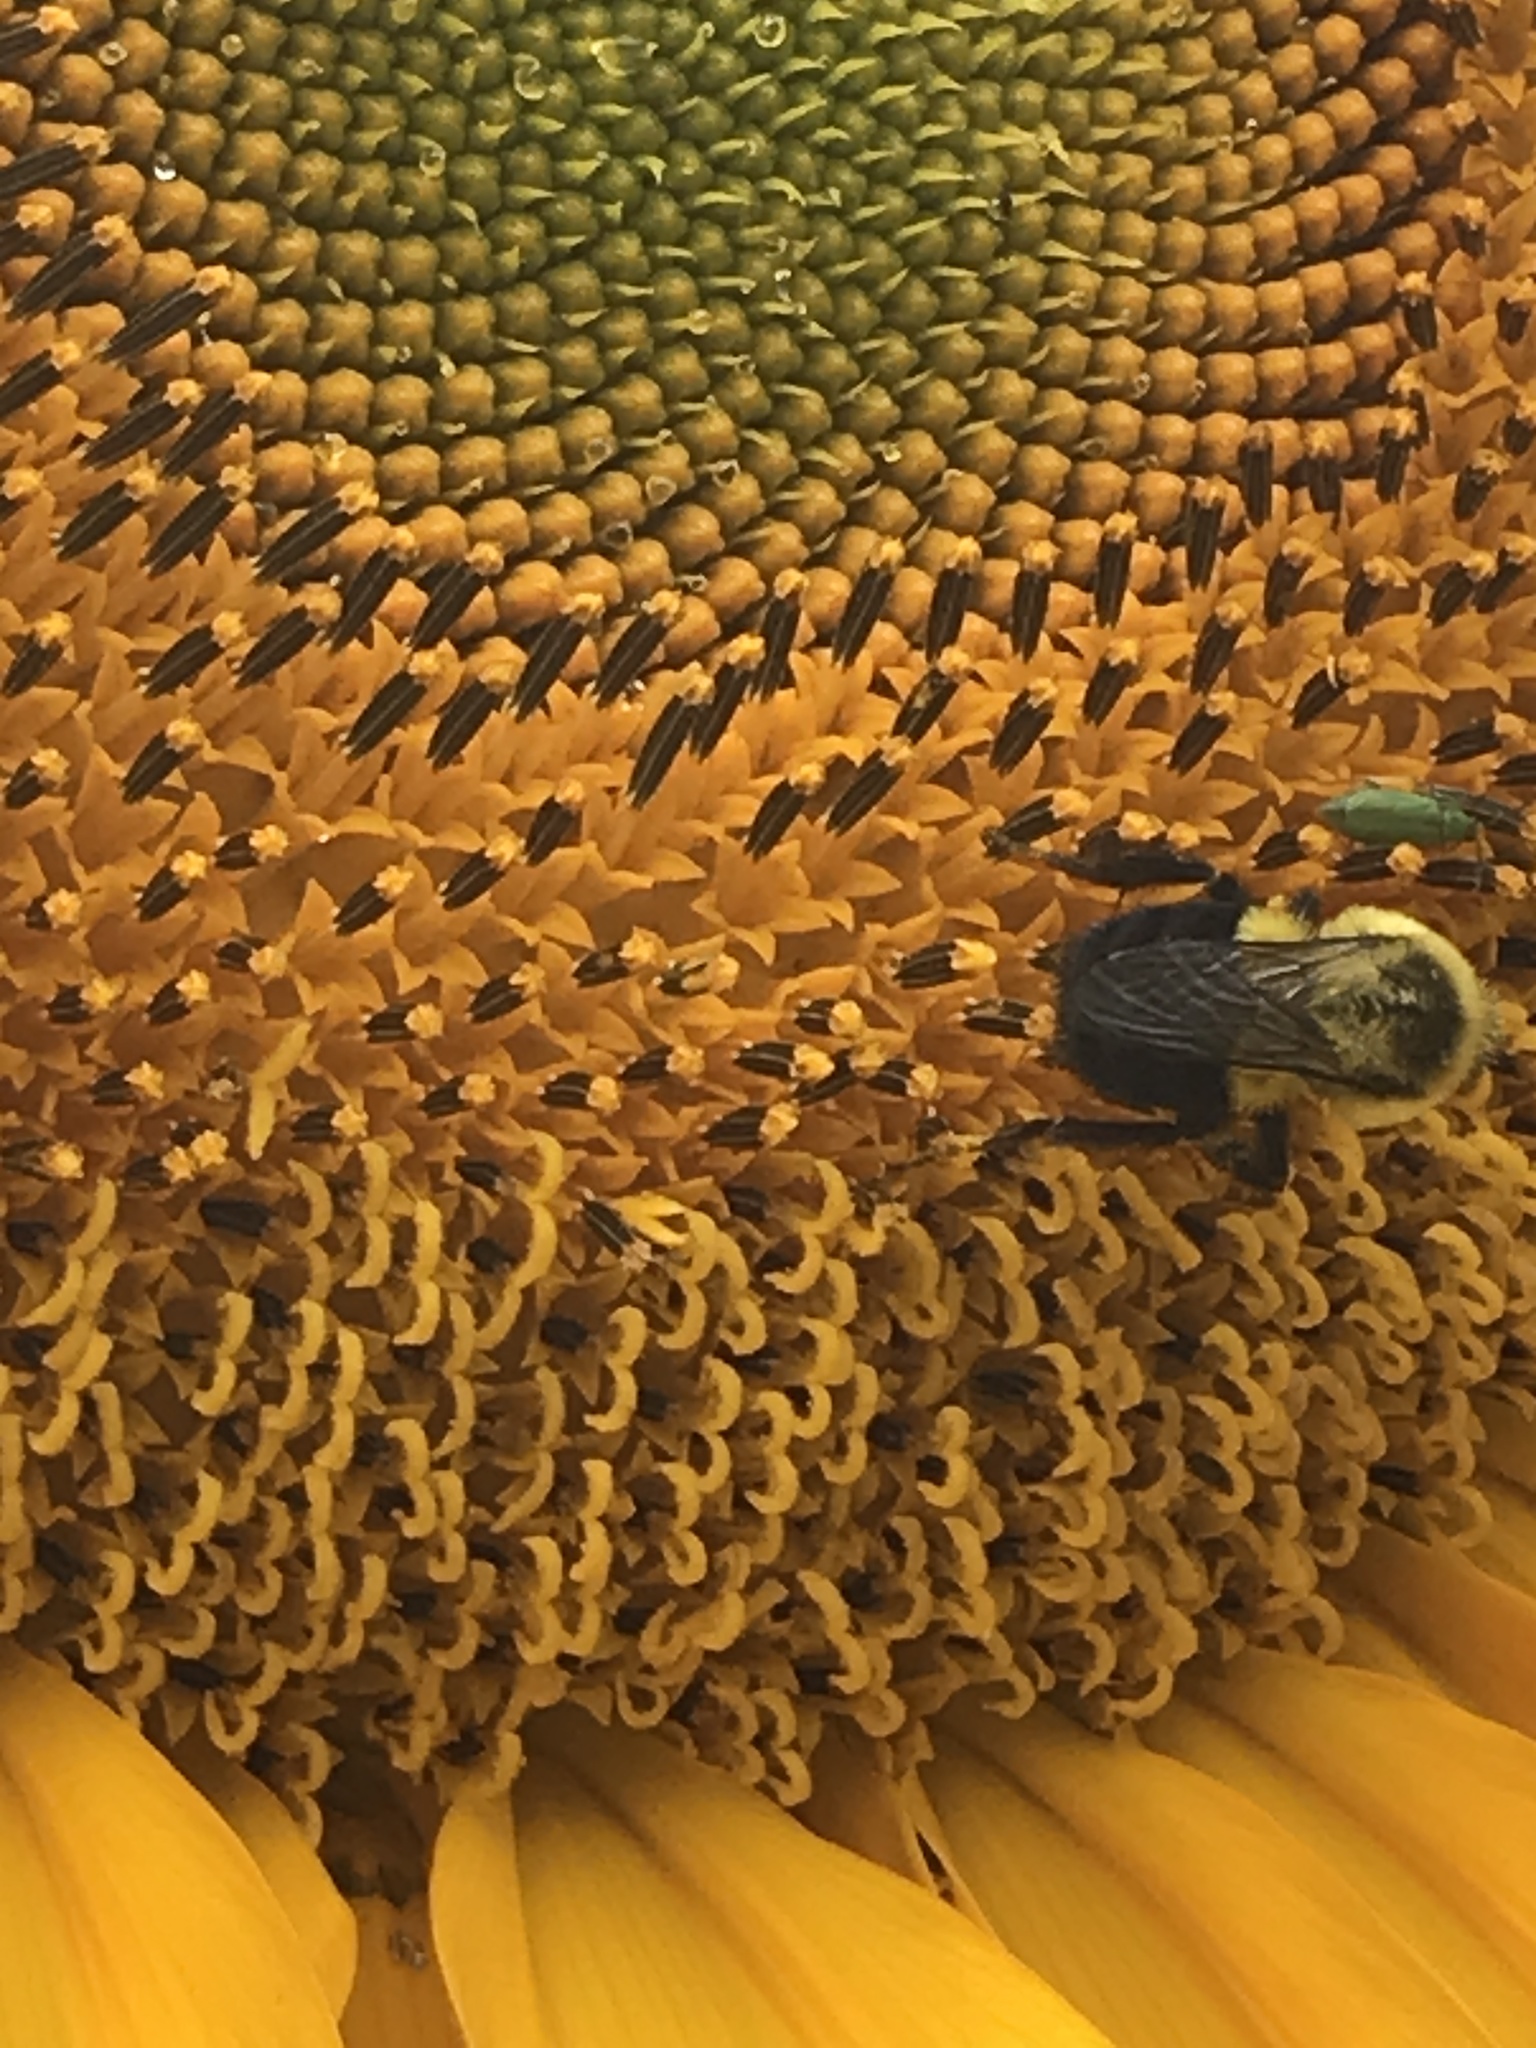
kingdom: Animalia
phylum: Arthropoda
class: Insecta
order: Hymenoptera
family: Apidae
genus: Bombus
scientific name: Bombus impatiens
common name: Common eastern bumble bee
